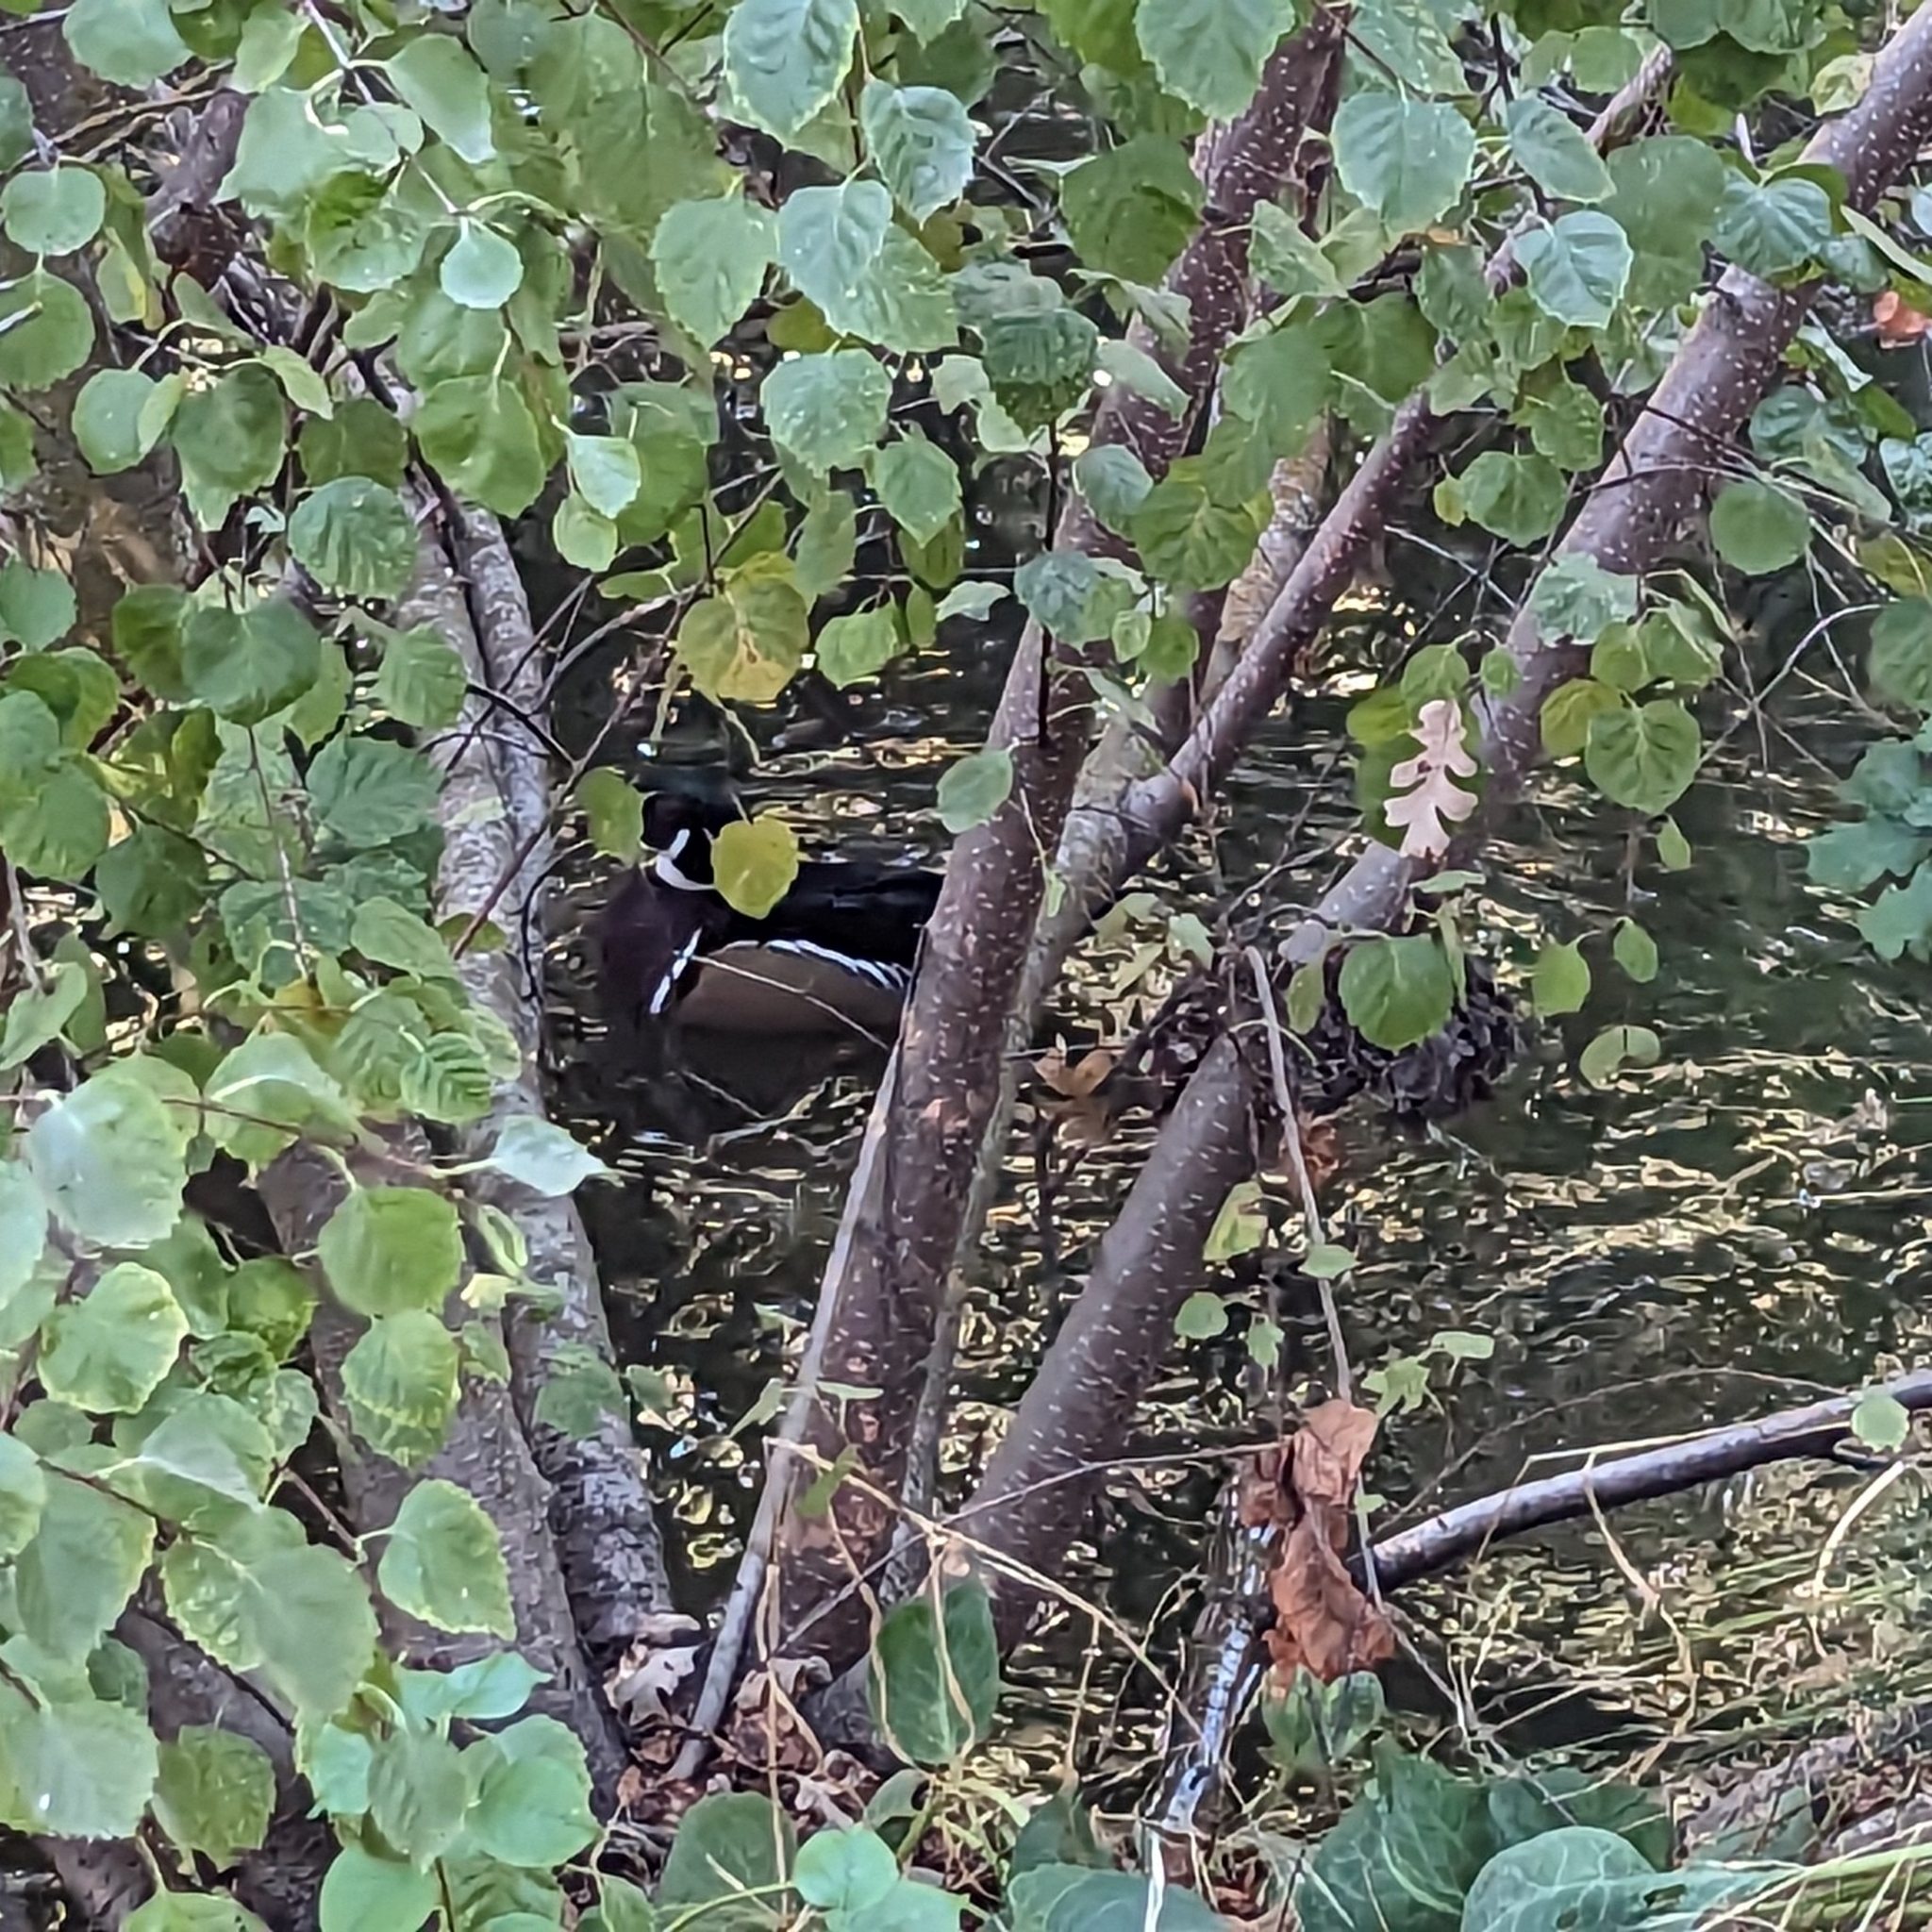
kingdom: Animalia
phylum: Chordata
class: Aves
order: Anseriformes
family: Anatidae
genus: Aix
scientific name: Aix sponsa
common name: Wood duck
